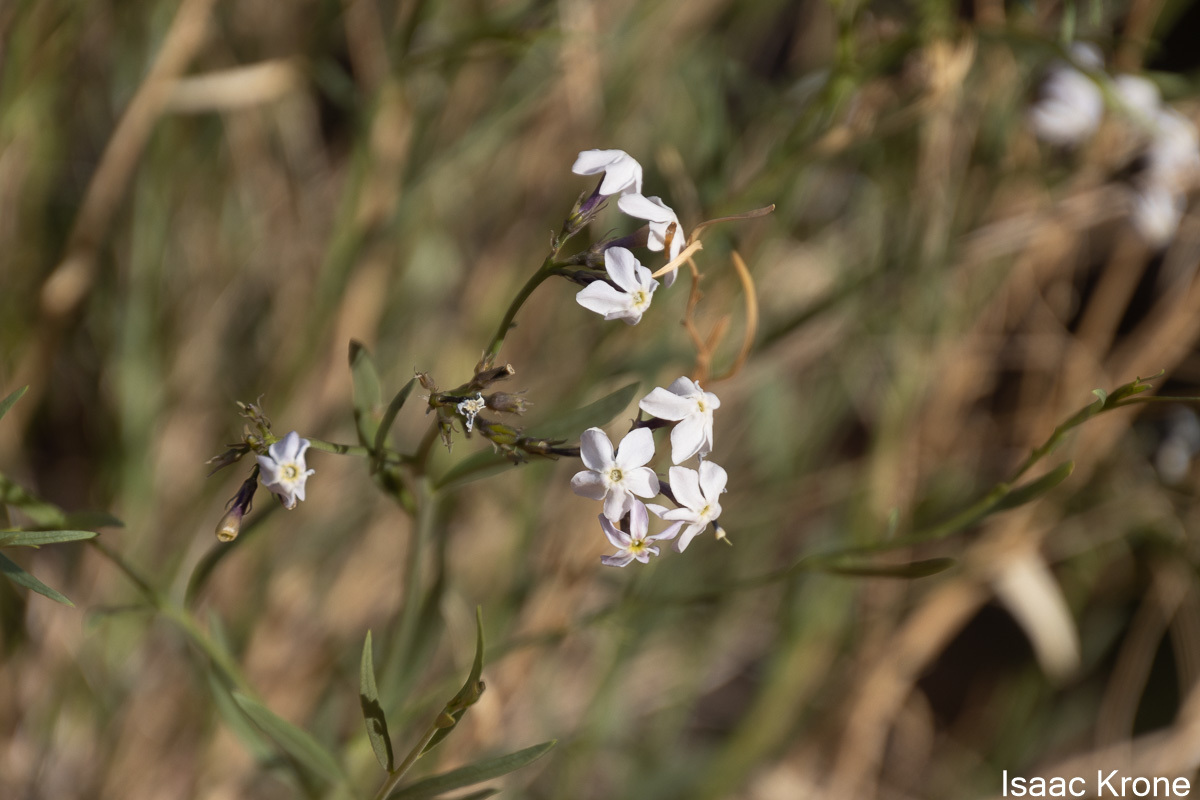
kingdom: Plantae
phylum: Tracheophyta
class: Magnoliopsida
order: Gentianales
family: Apocynaceae
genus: Amsonia
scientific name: Amsonia tomentosa
